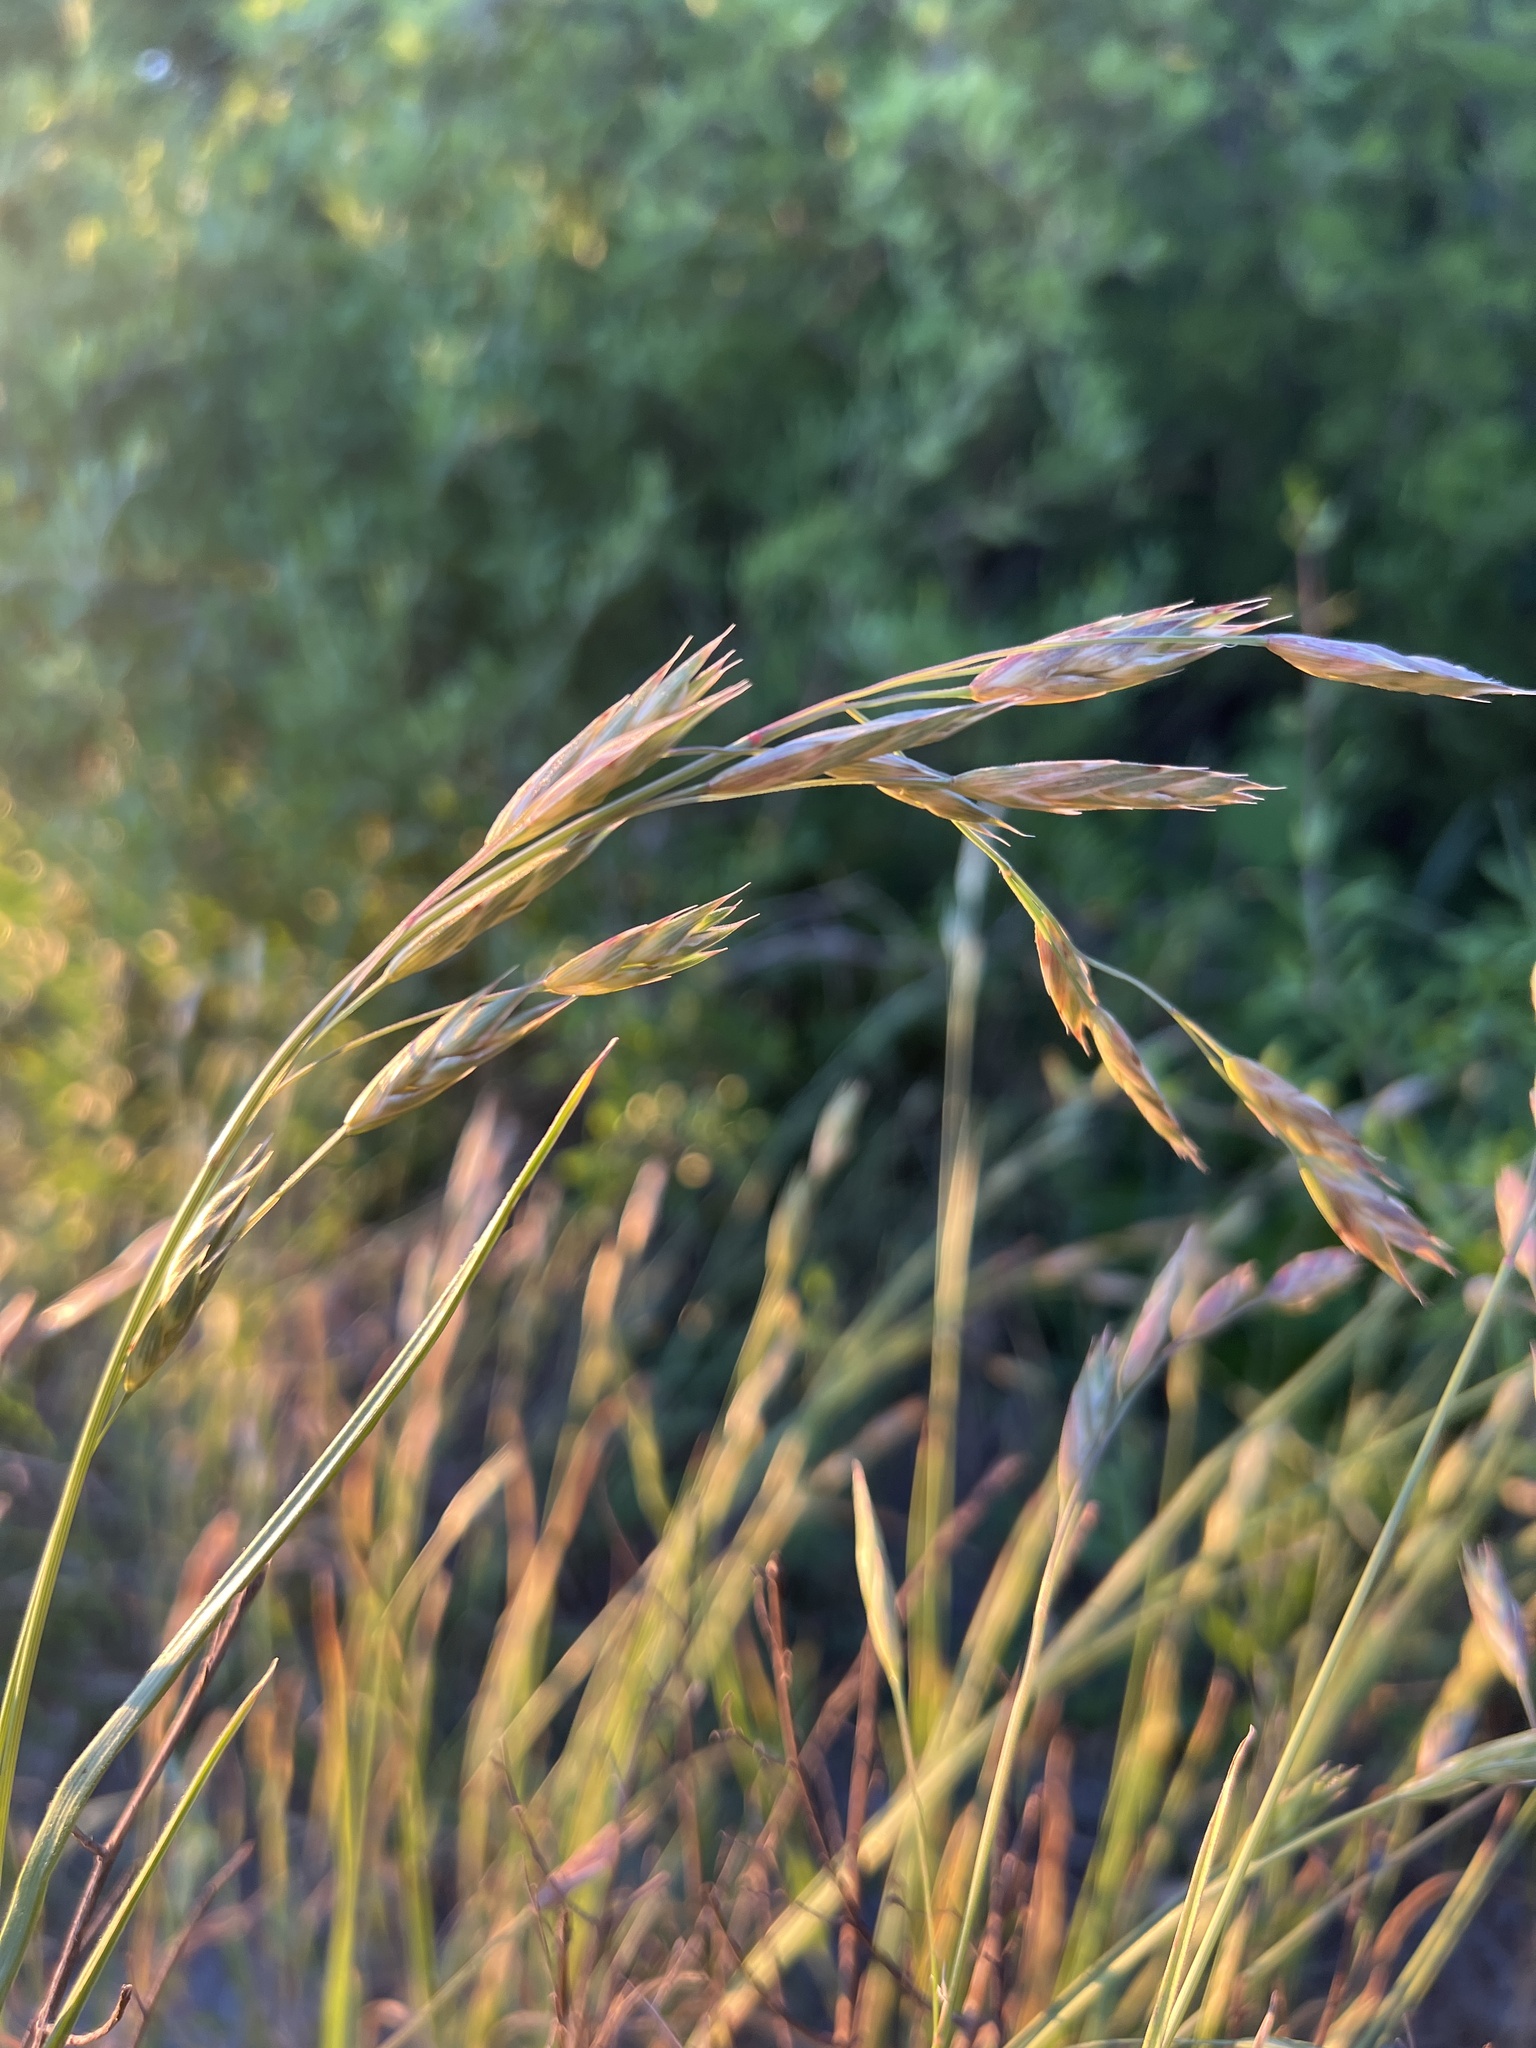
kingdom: Plantae
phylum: Tracheophyta
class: Liliopsida
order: Poales
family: Poaceae
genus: Bromus
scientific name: Bromus catharticus
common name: Rescuegrass
